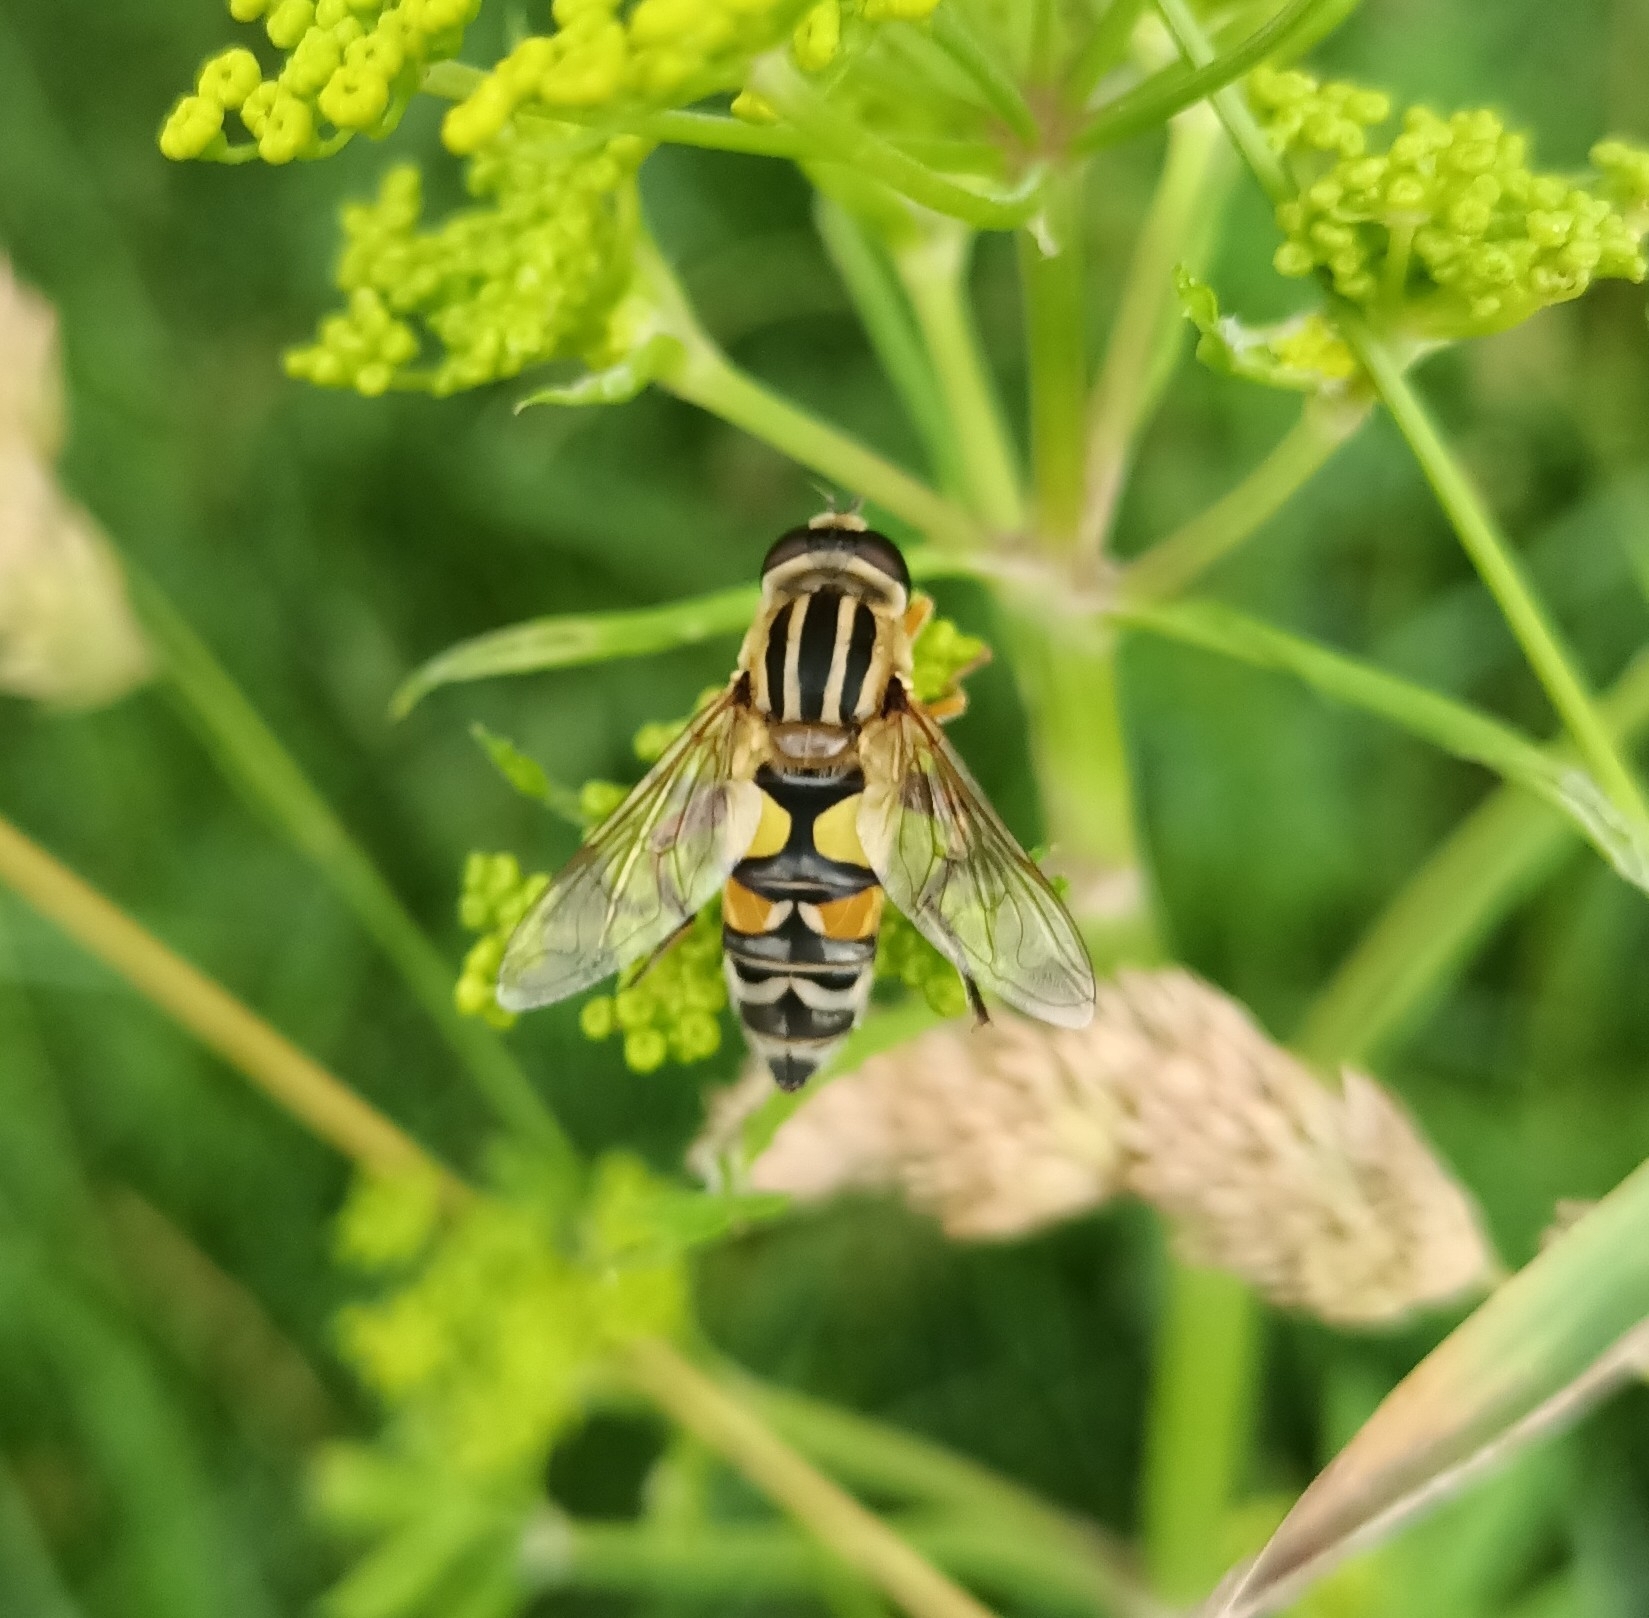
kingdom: Animalia
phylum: Arthropoda
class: Insecta
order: Diptera
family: Syrphidae
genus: Helophilus
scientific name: Helophilus trivittatus
